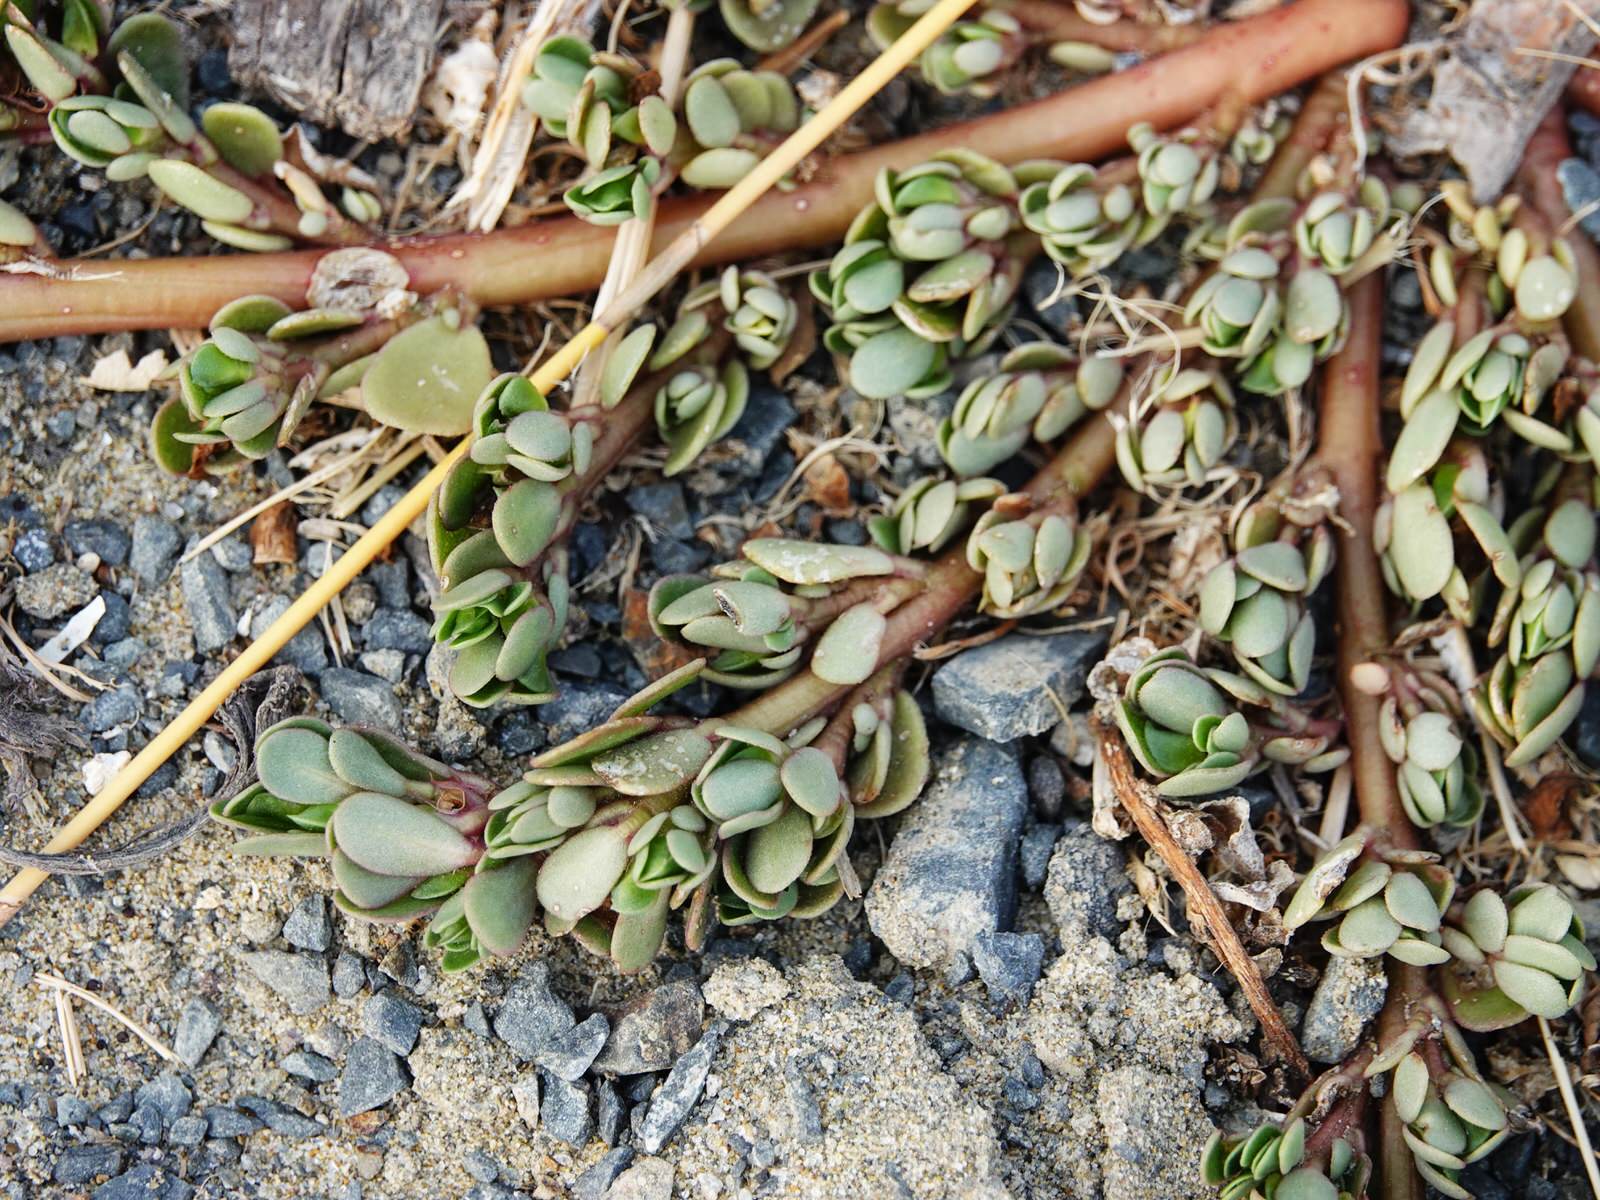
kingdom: Plantae
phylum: Tracheophyta
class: Magnoliopsida
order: Caryophyllales
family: Portulacaceae
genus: Portulaca
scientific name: Portulaca oleracea
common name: Common purslane
